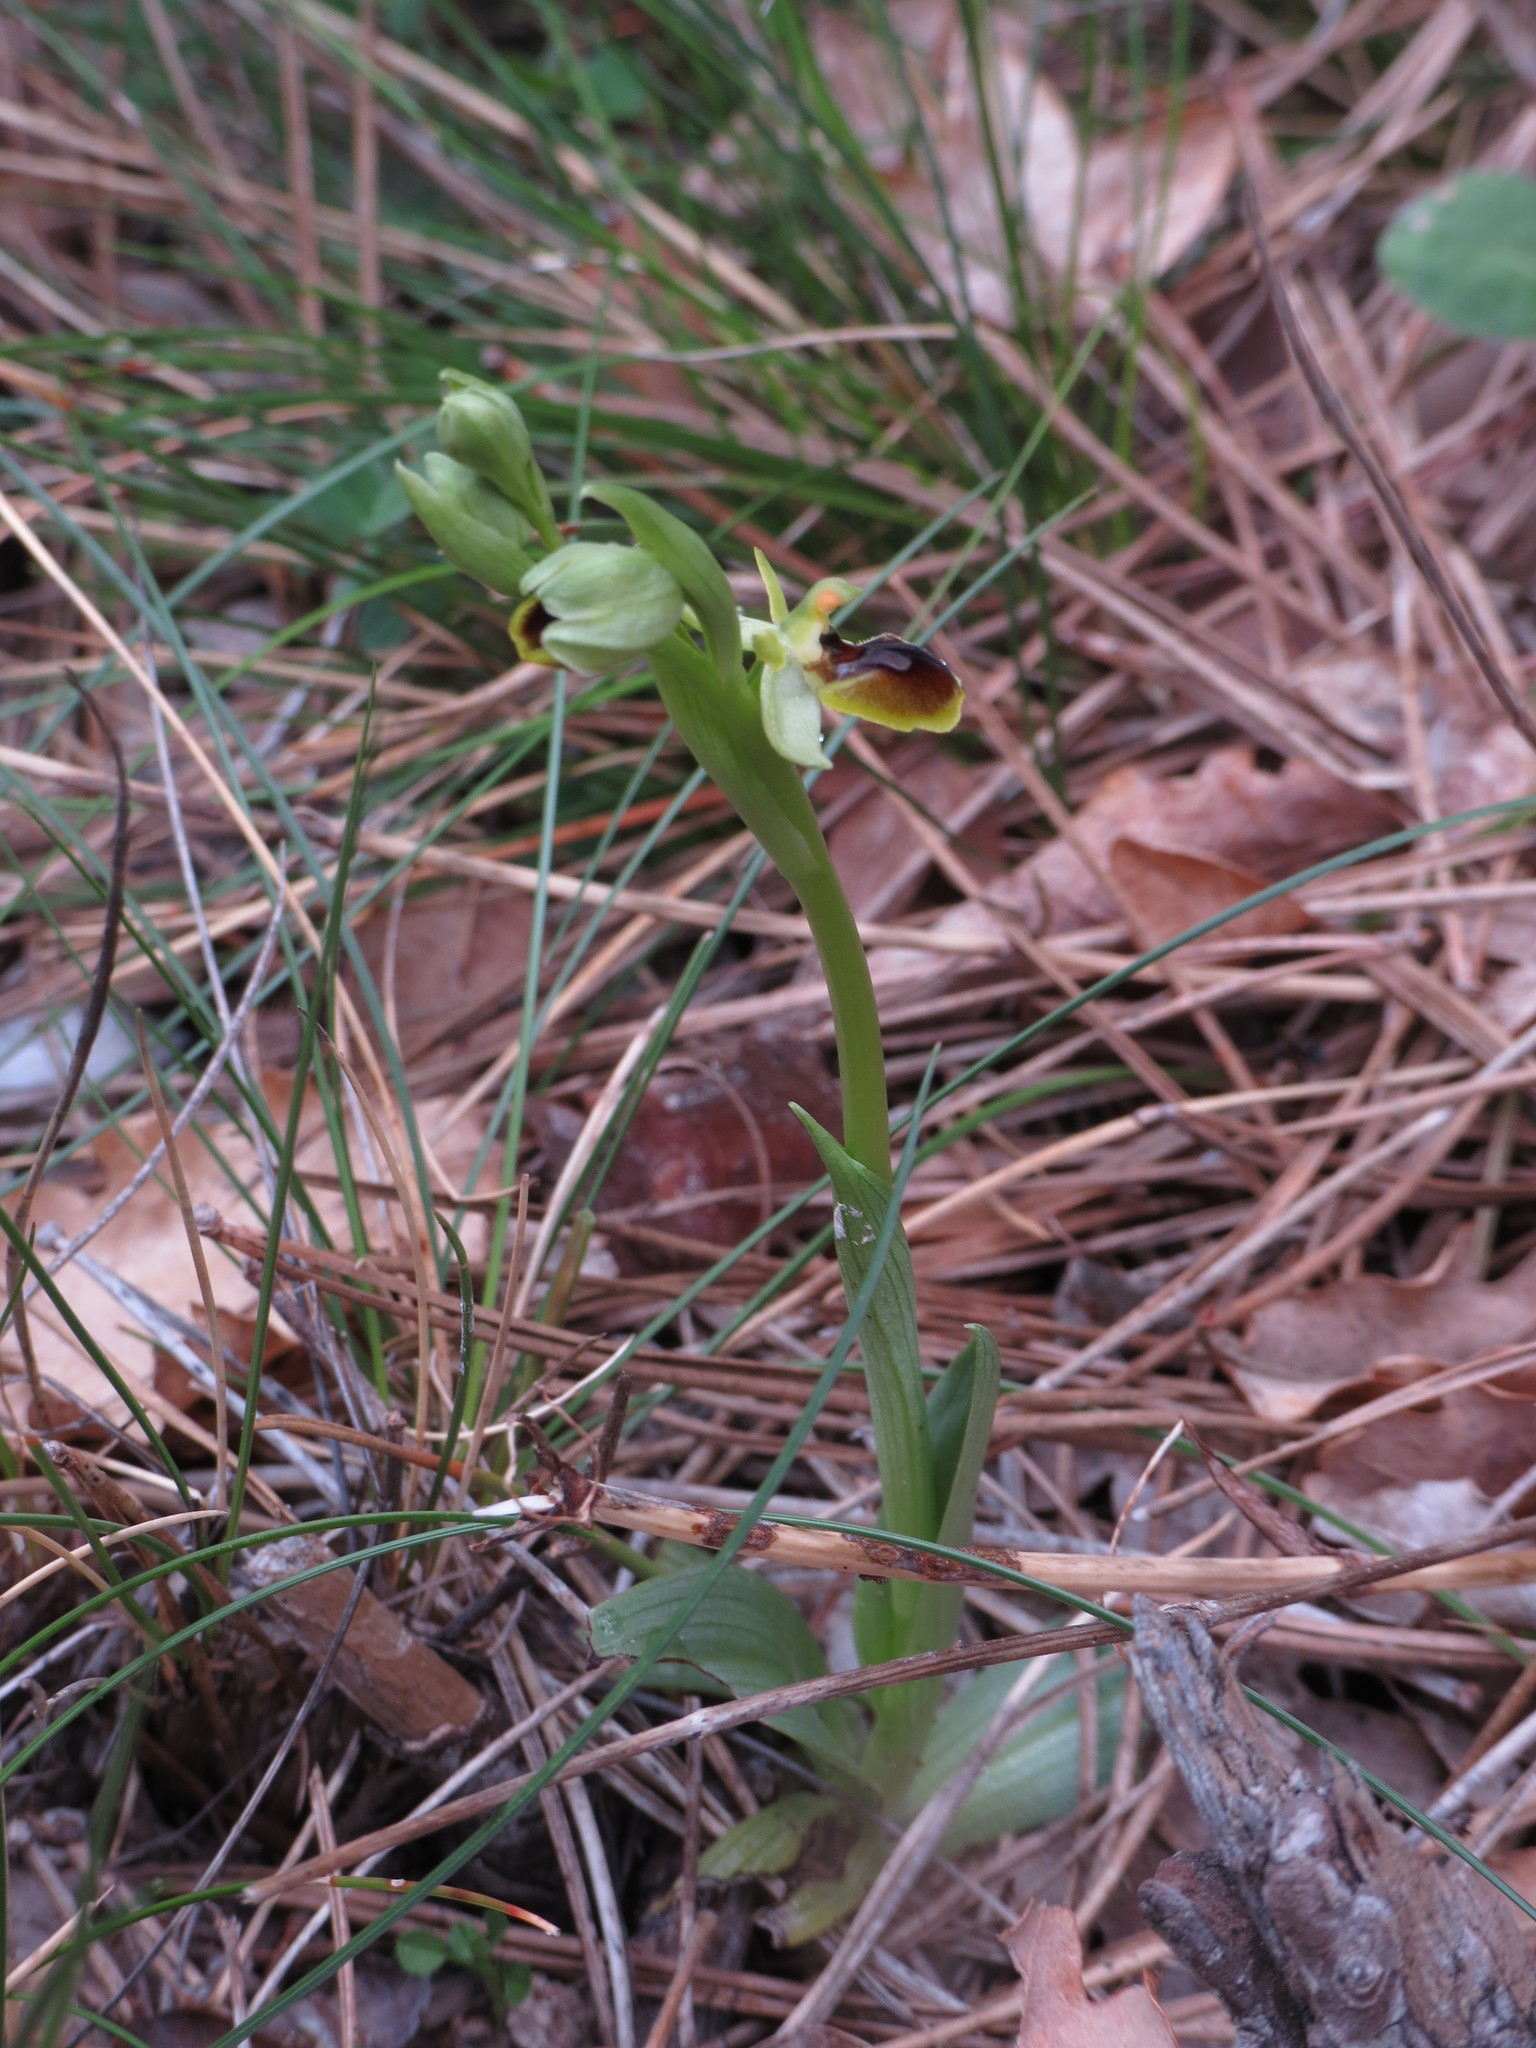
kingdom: Plantae
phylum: Tracheophyta
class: Liliopsida
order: Asparagales
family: Orchidaceae
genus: Ophrys
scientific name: Ophrys sphegodes
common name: Early spider-orchid
